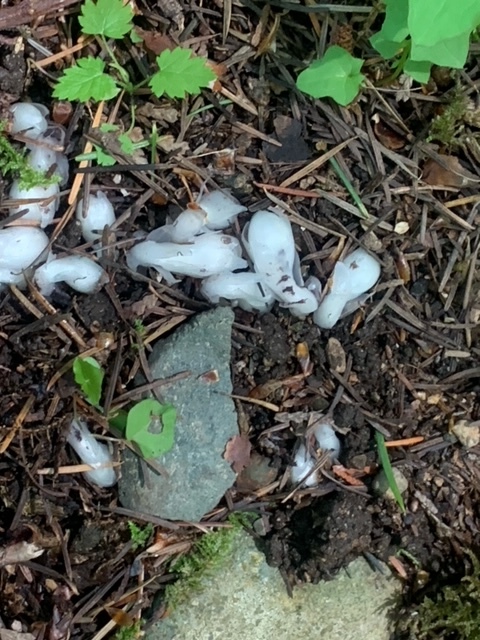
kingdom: Plantae
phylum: Tracheophyta
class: Magnoliopsida
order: Ericales
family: Ericaceae
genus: Monotropa
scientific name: Monotropa uniflora
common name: Convulsion root
